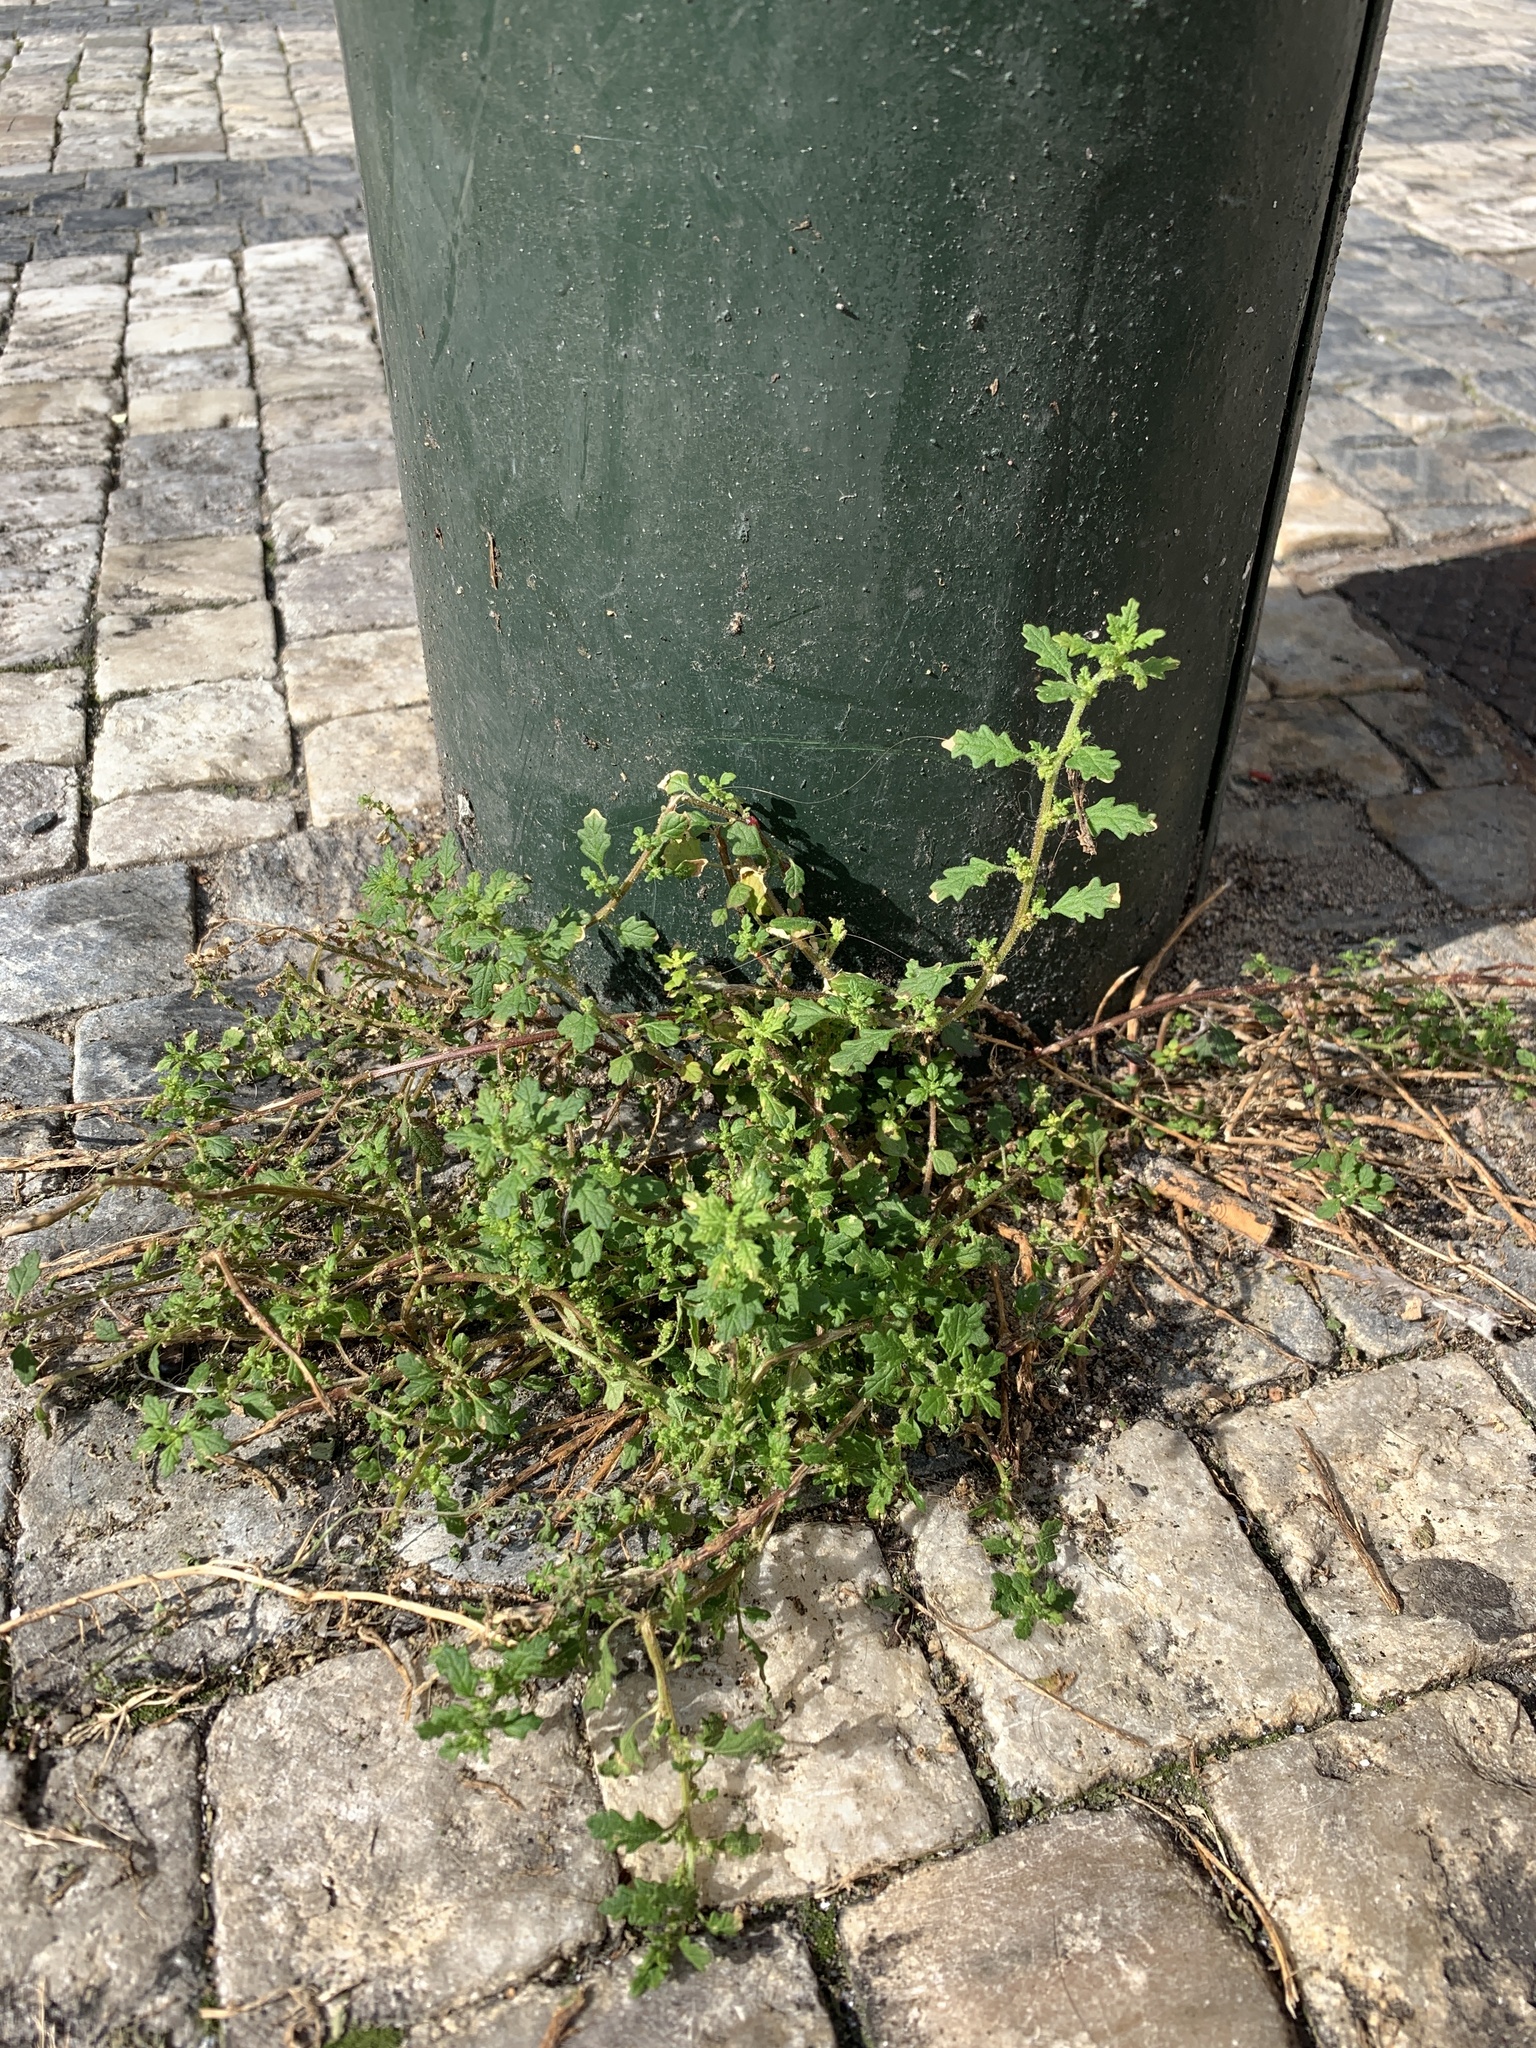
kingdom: Plantae
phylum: Tracheophyta
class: Magnoliopsida
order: Caryophyllales
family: Amaranthaceae
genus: Dysphania
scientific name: Dysphania pumilio
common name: Clammy goosefoot
